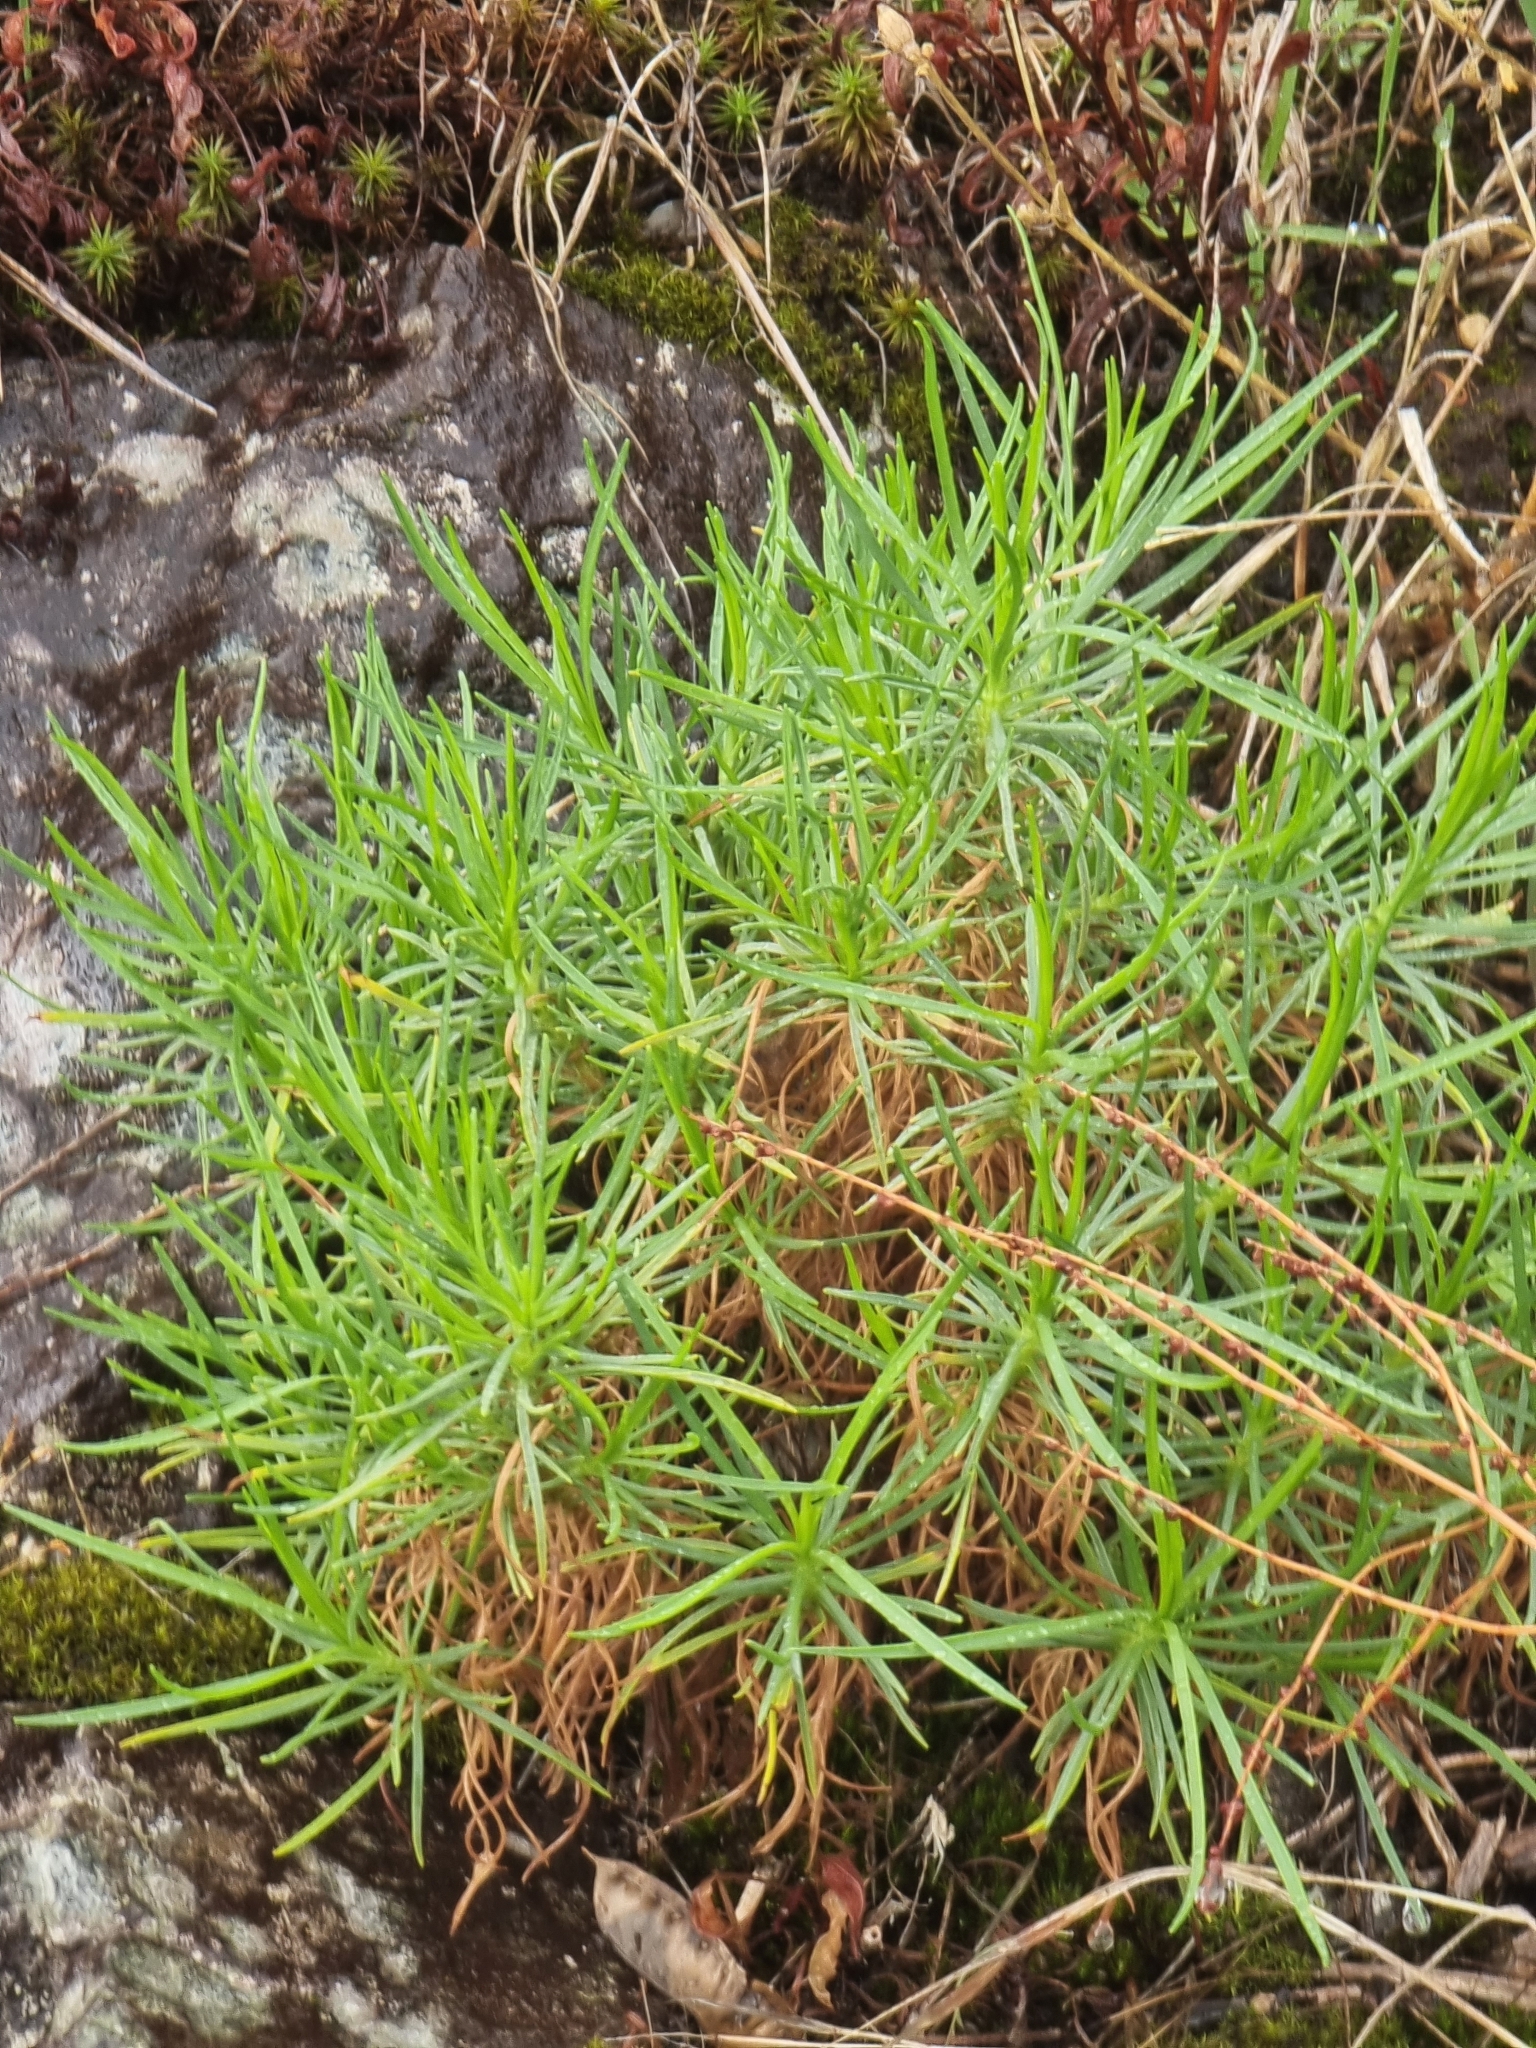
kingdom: Plantae
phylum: Tracheophyta
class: Magnoliopsida
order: Lamiales
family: Plantaginaceae
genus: Plantago
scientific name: Plantago arborescens
